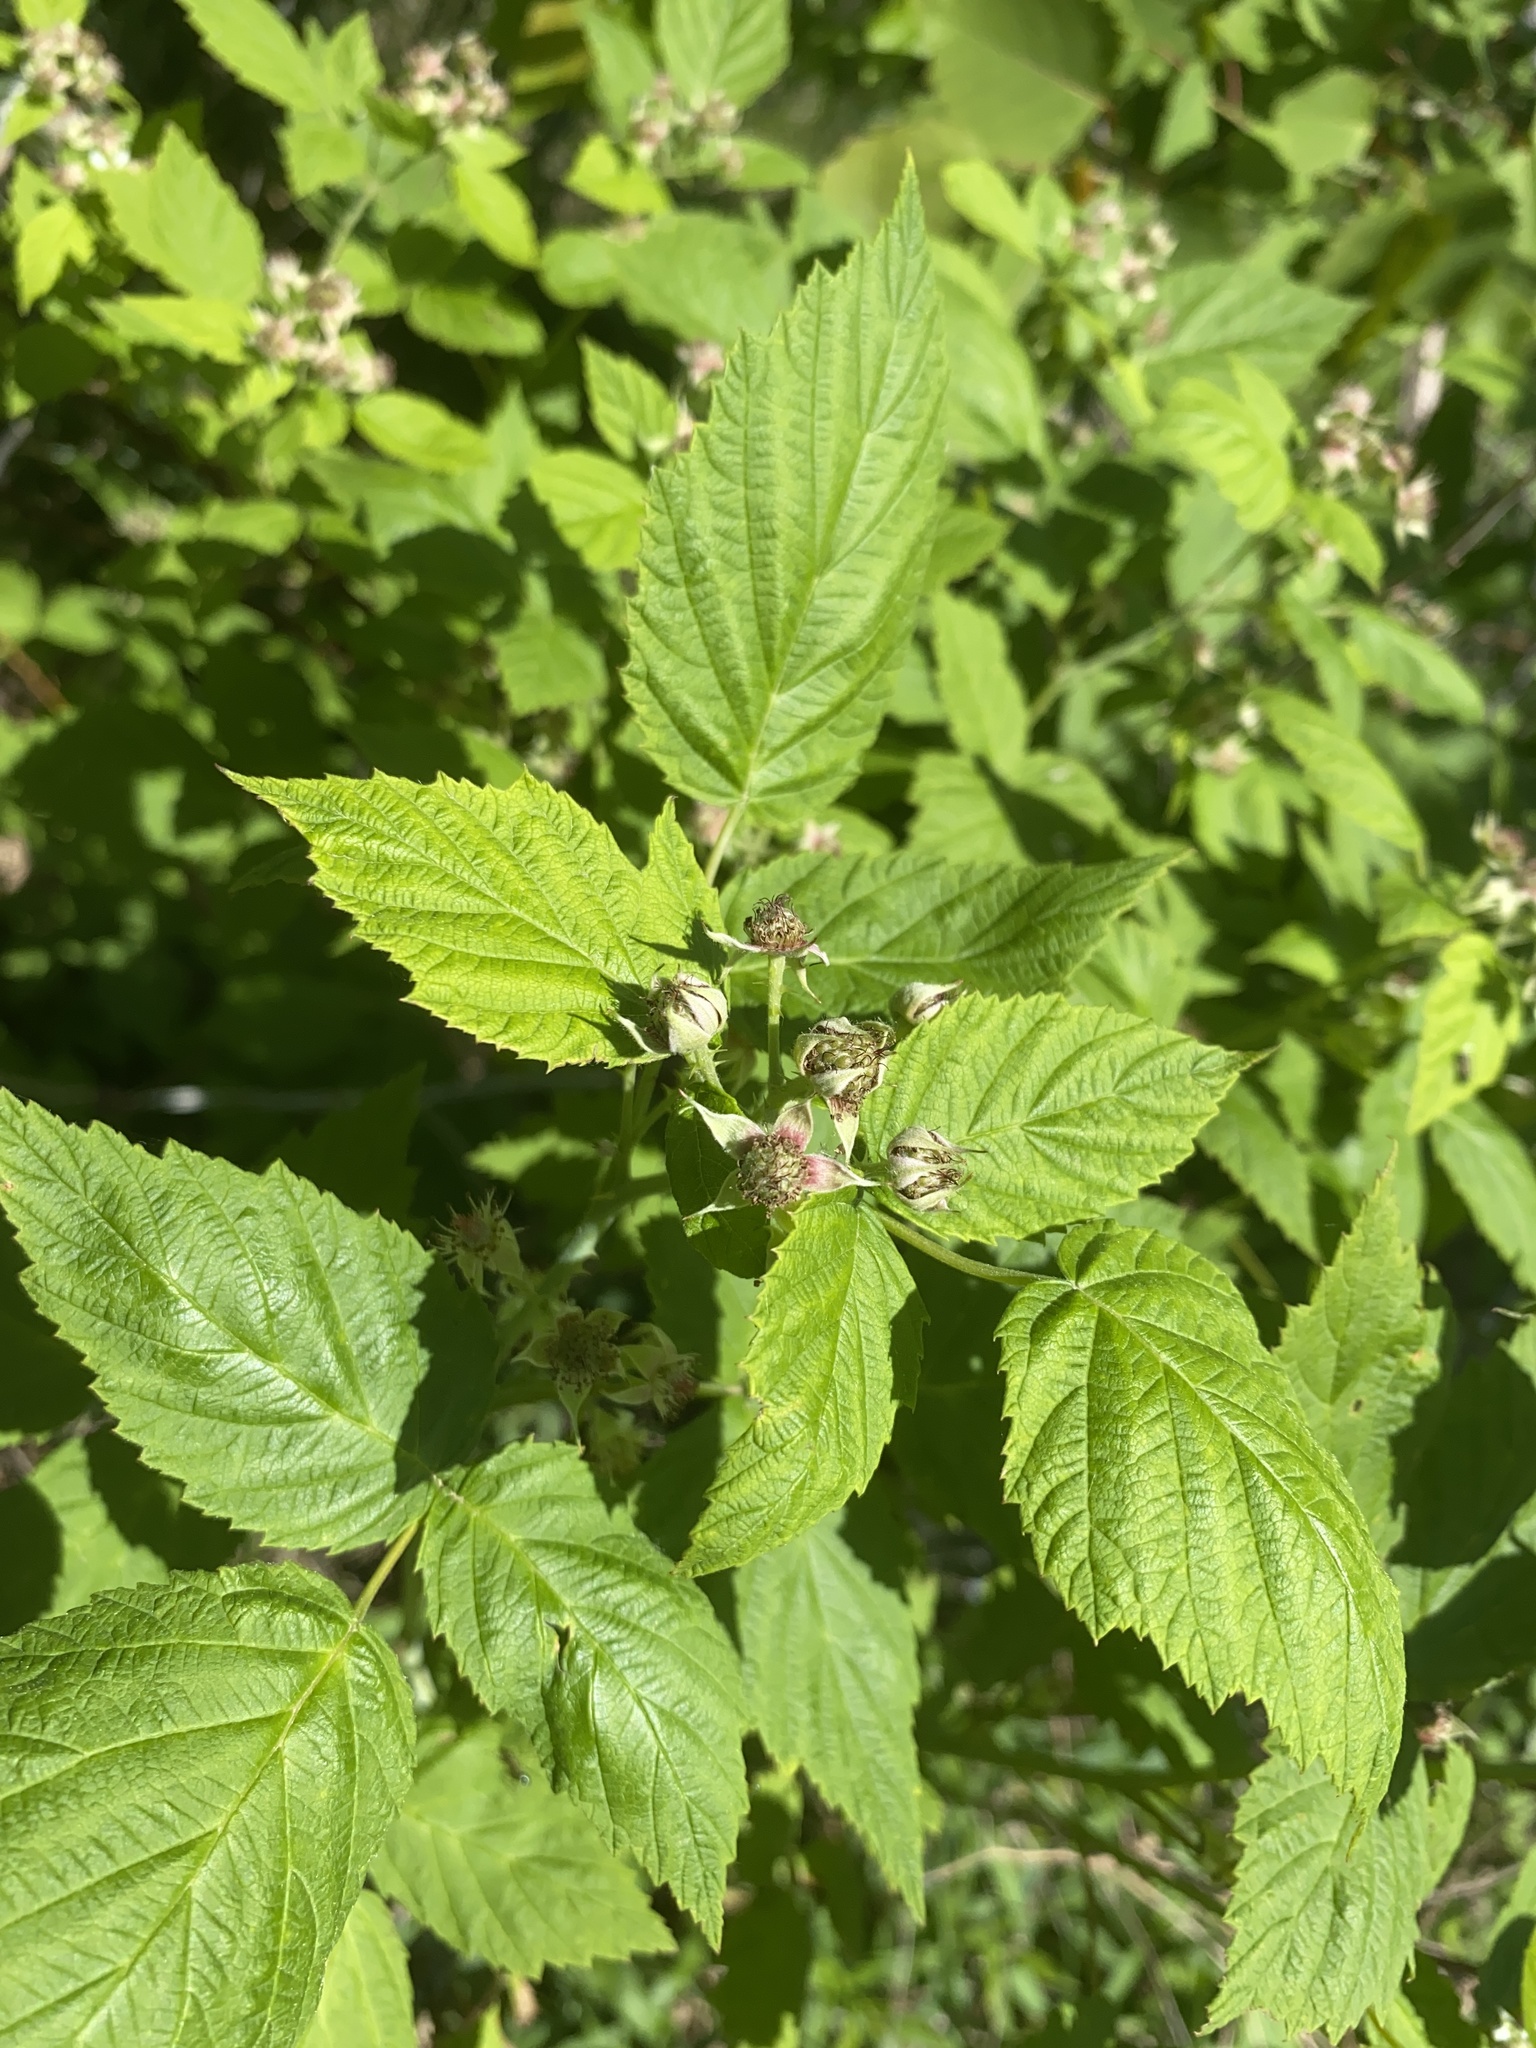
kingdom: Plantae
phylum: Tracheophyta
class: Magnoliopsida
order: Rosales
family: Rosaceae
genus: Rubus
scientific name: Rubus occidentalis
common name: Black raspberry
